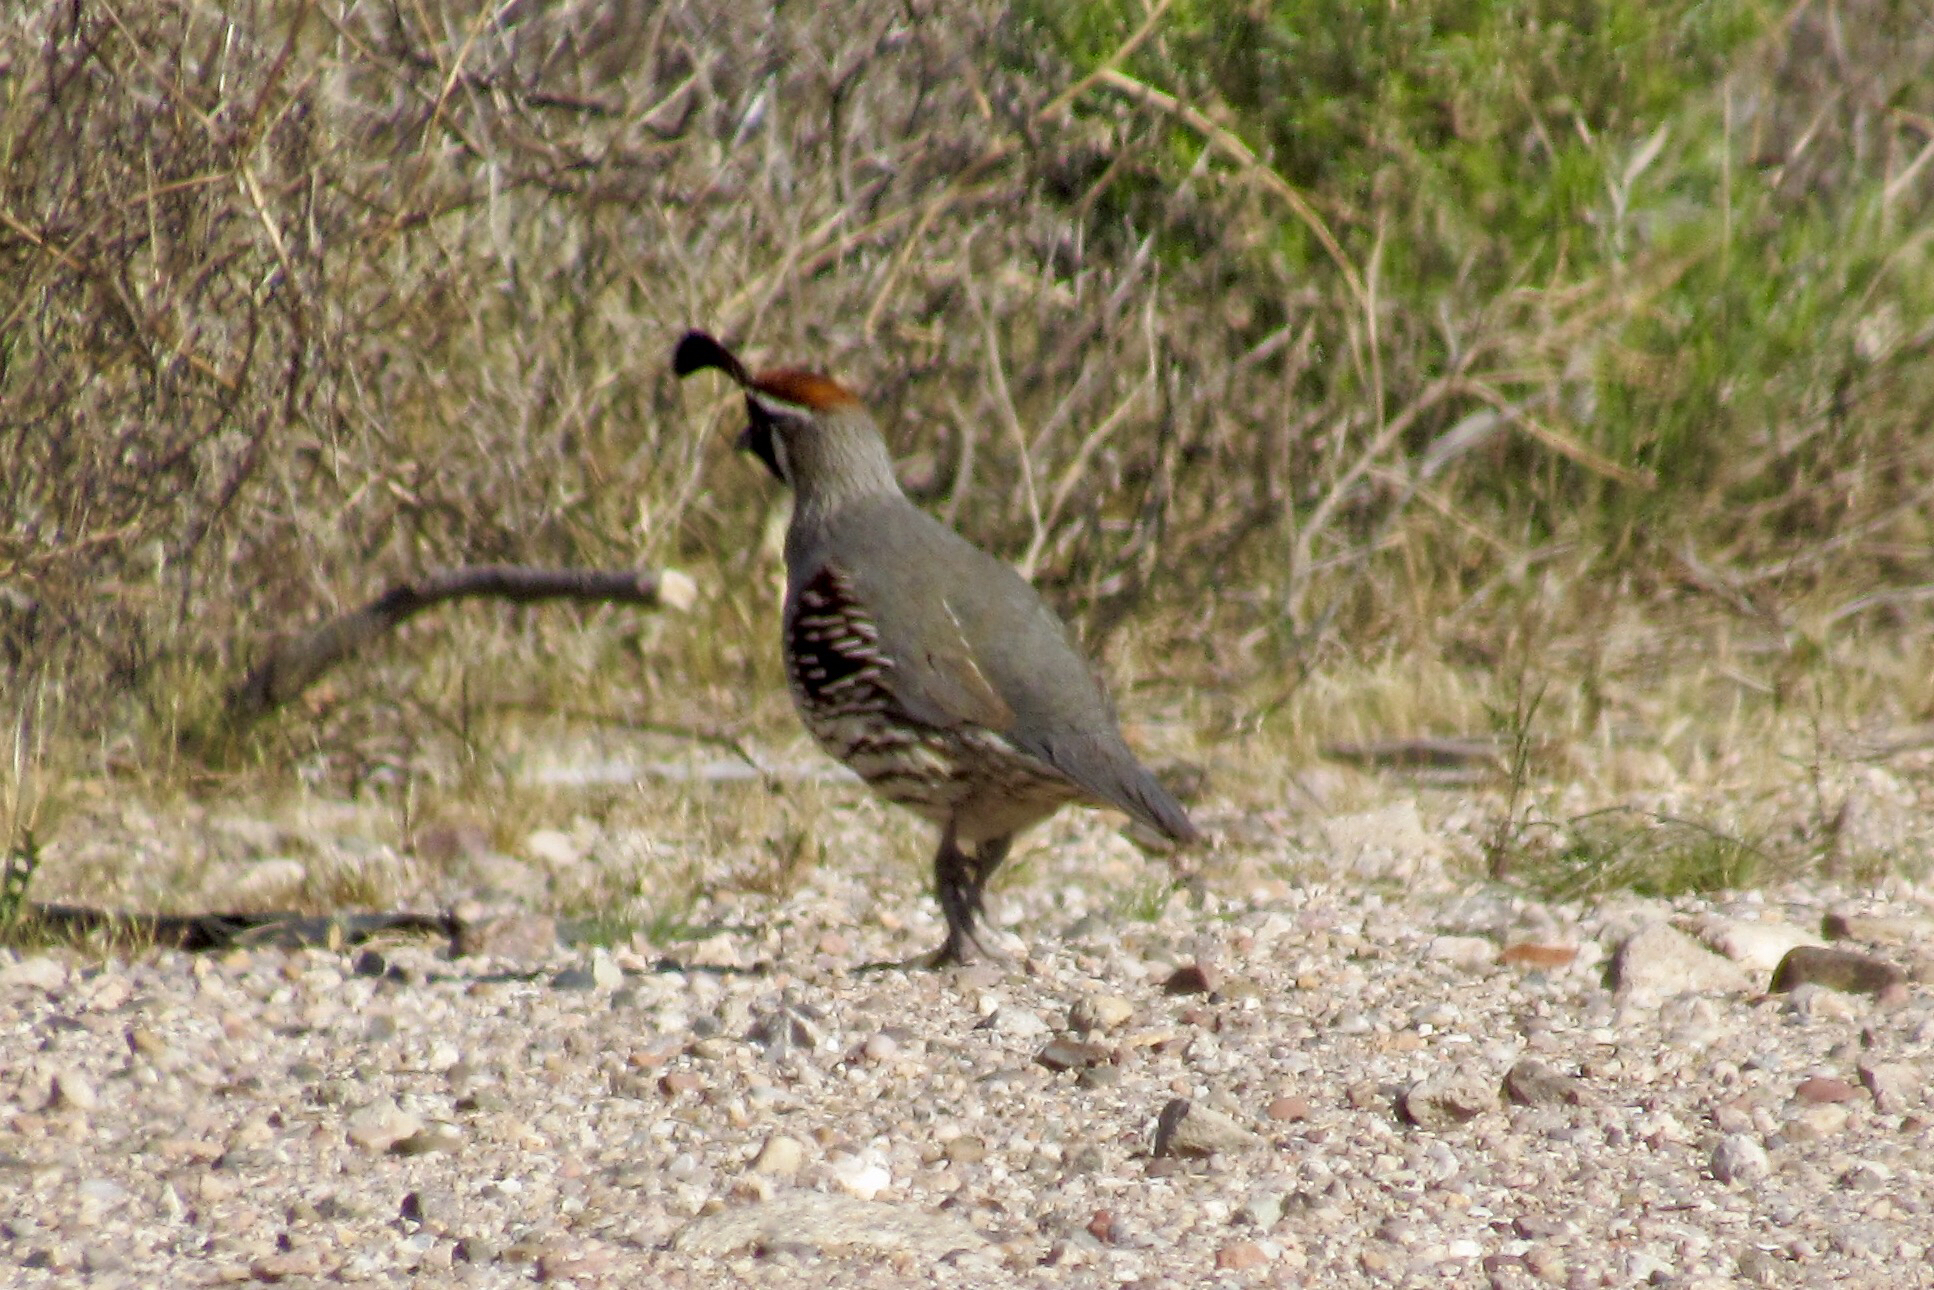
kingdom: Animalia
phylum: Chordata
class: Aves
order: Galliformes
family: Odontophoridae
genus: Callipepla
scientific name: Callipepla gambelii
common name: Gambel's quail
